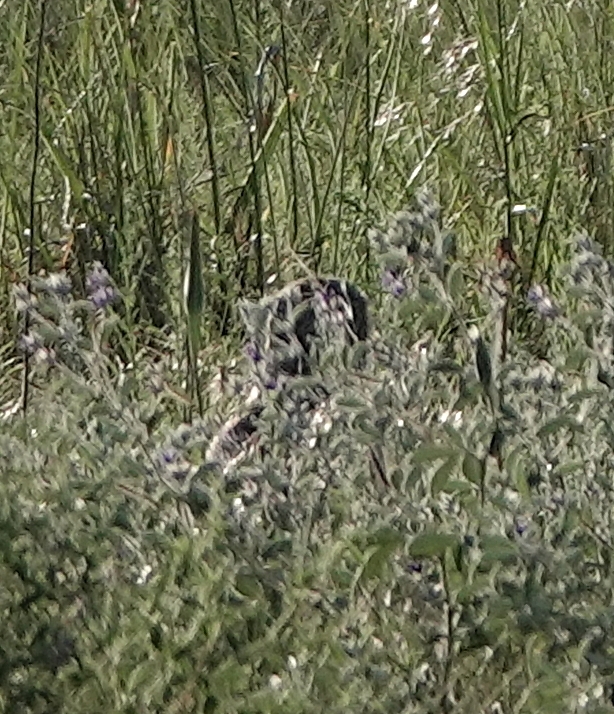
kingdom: Animalia
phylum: Chordata
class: Aves
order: Strigiformes
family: Strigidae
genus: Athene
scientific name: Athene cunicularia
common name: Burrowing owl
